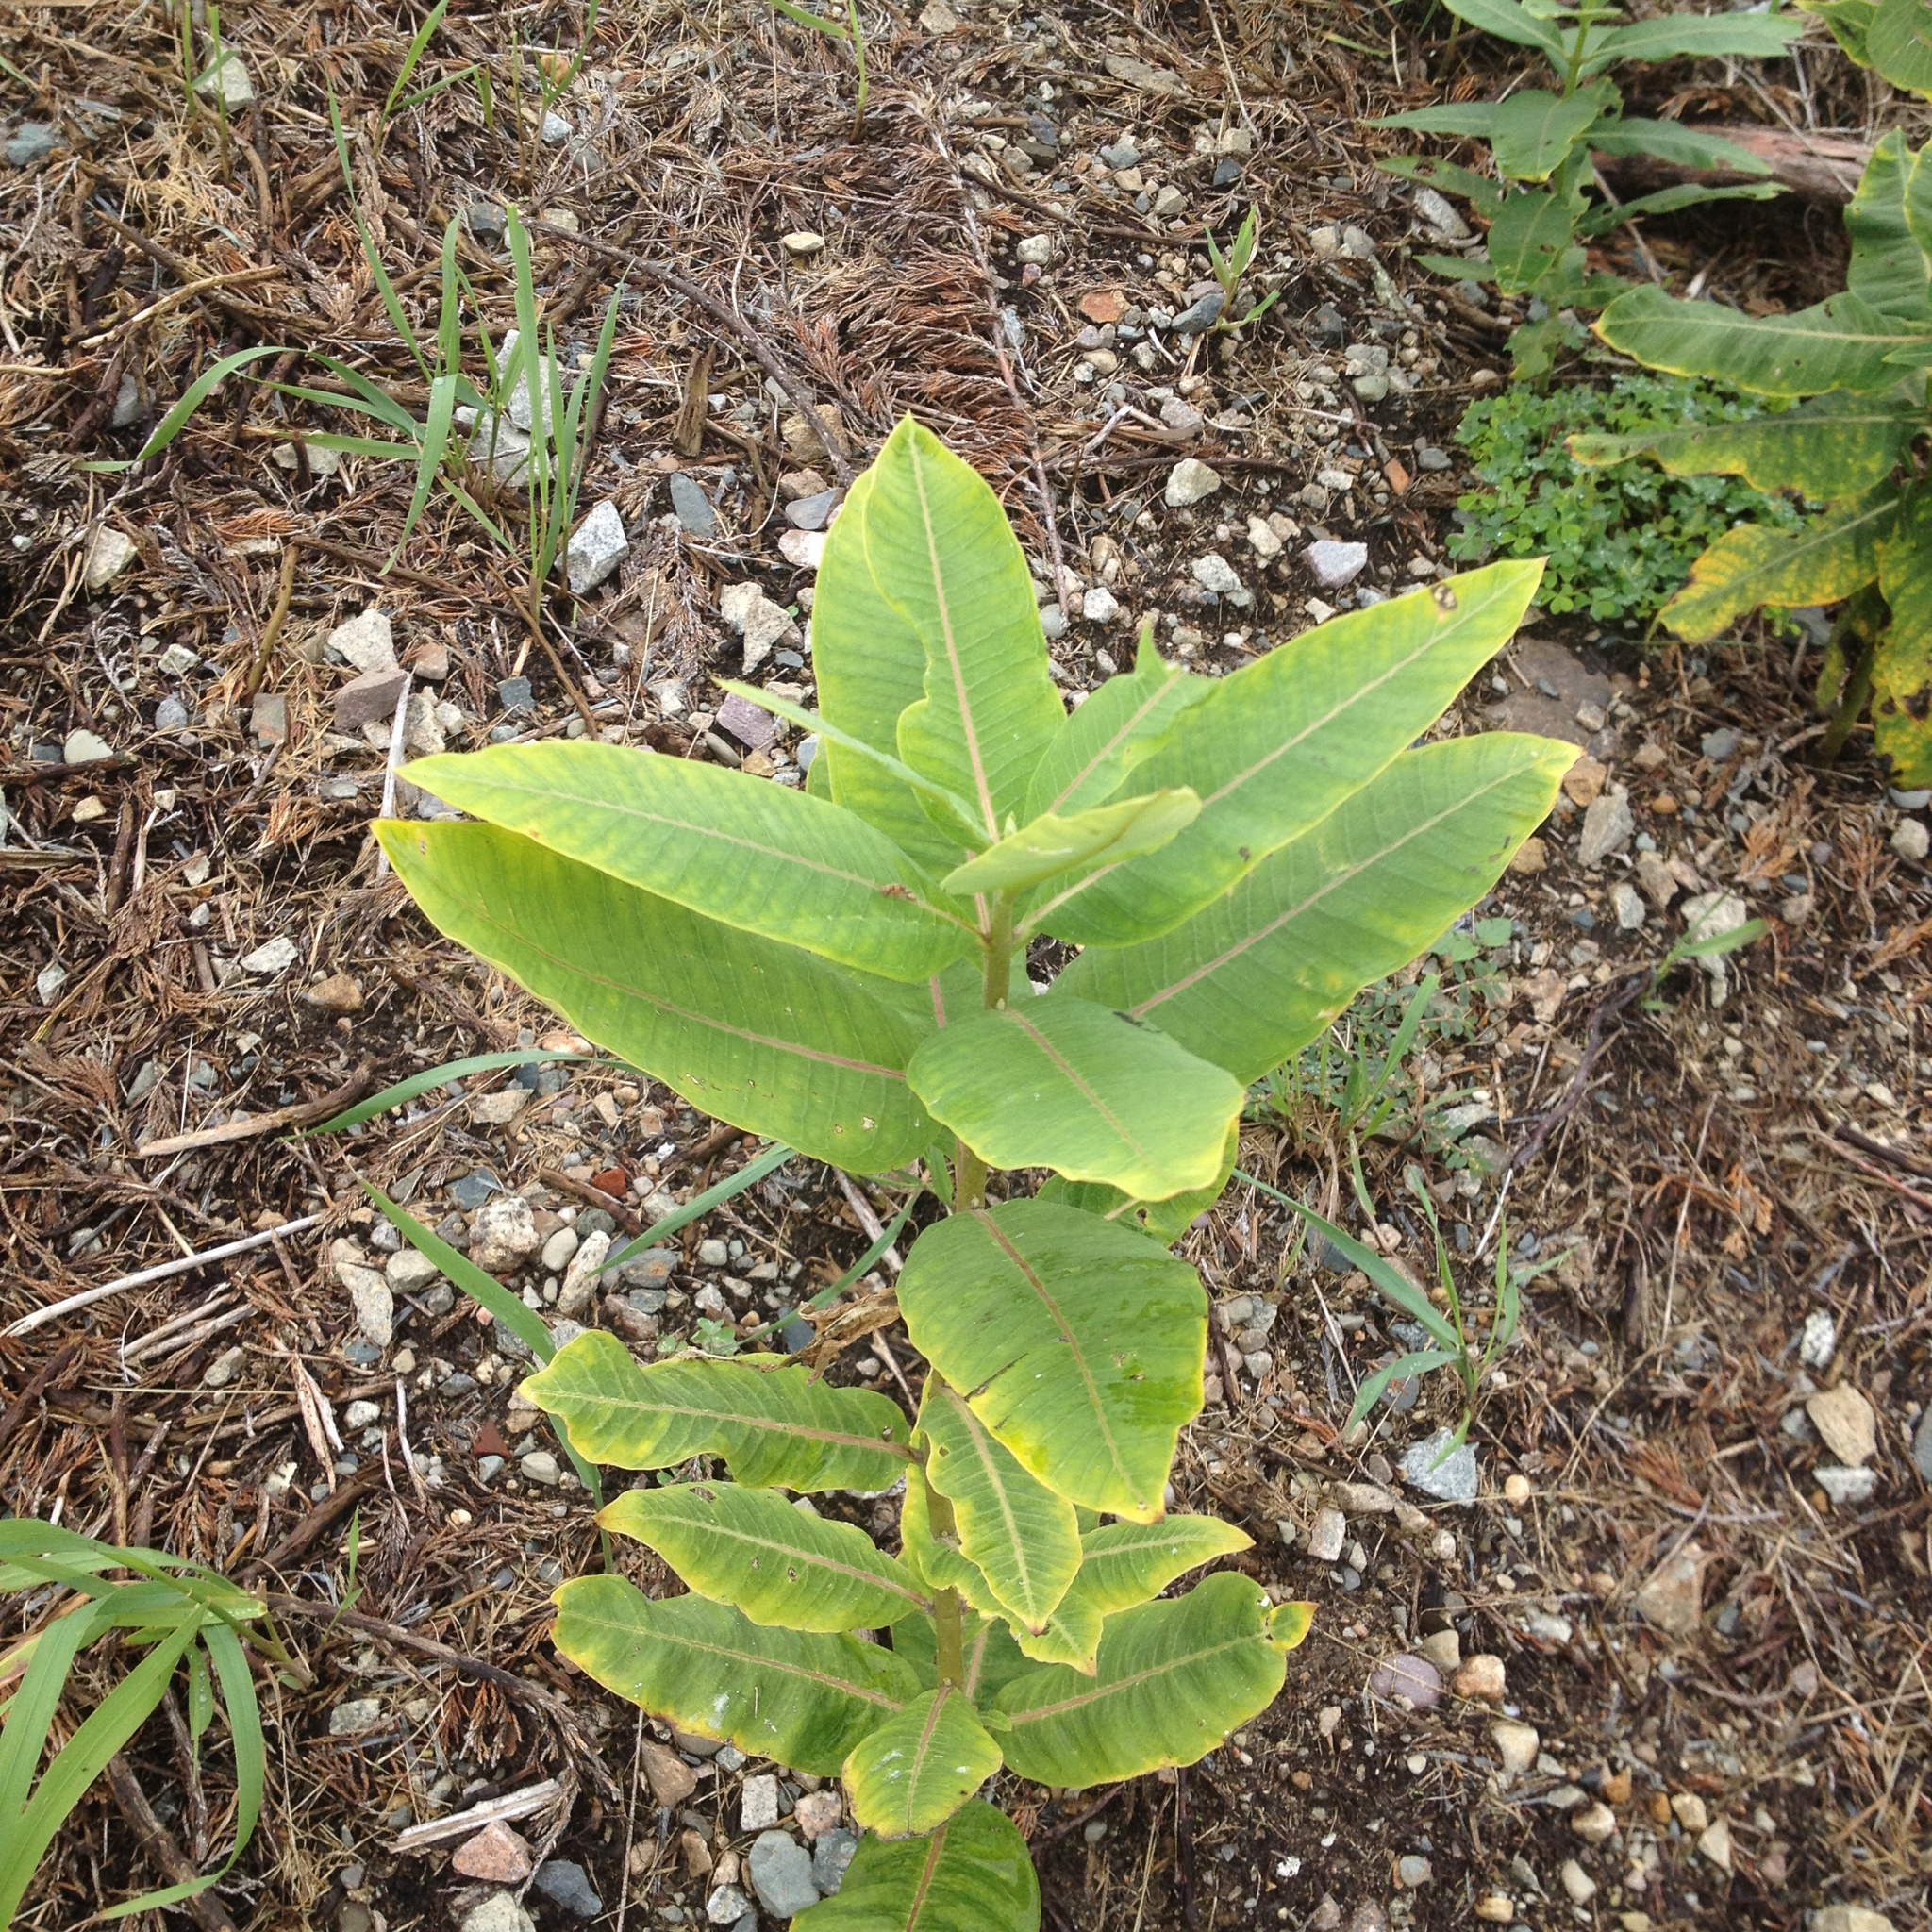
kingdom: Plantae
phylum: Tracheophyta
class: Magnoliopsida
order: Gentianales
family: Apocynaceae
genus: Asclepias
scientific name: Asclepias syriaca
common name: Common milkweed
